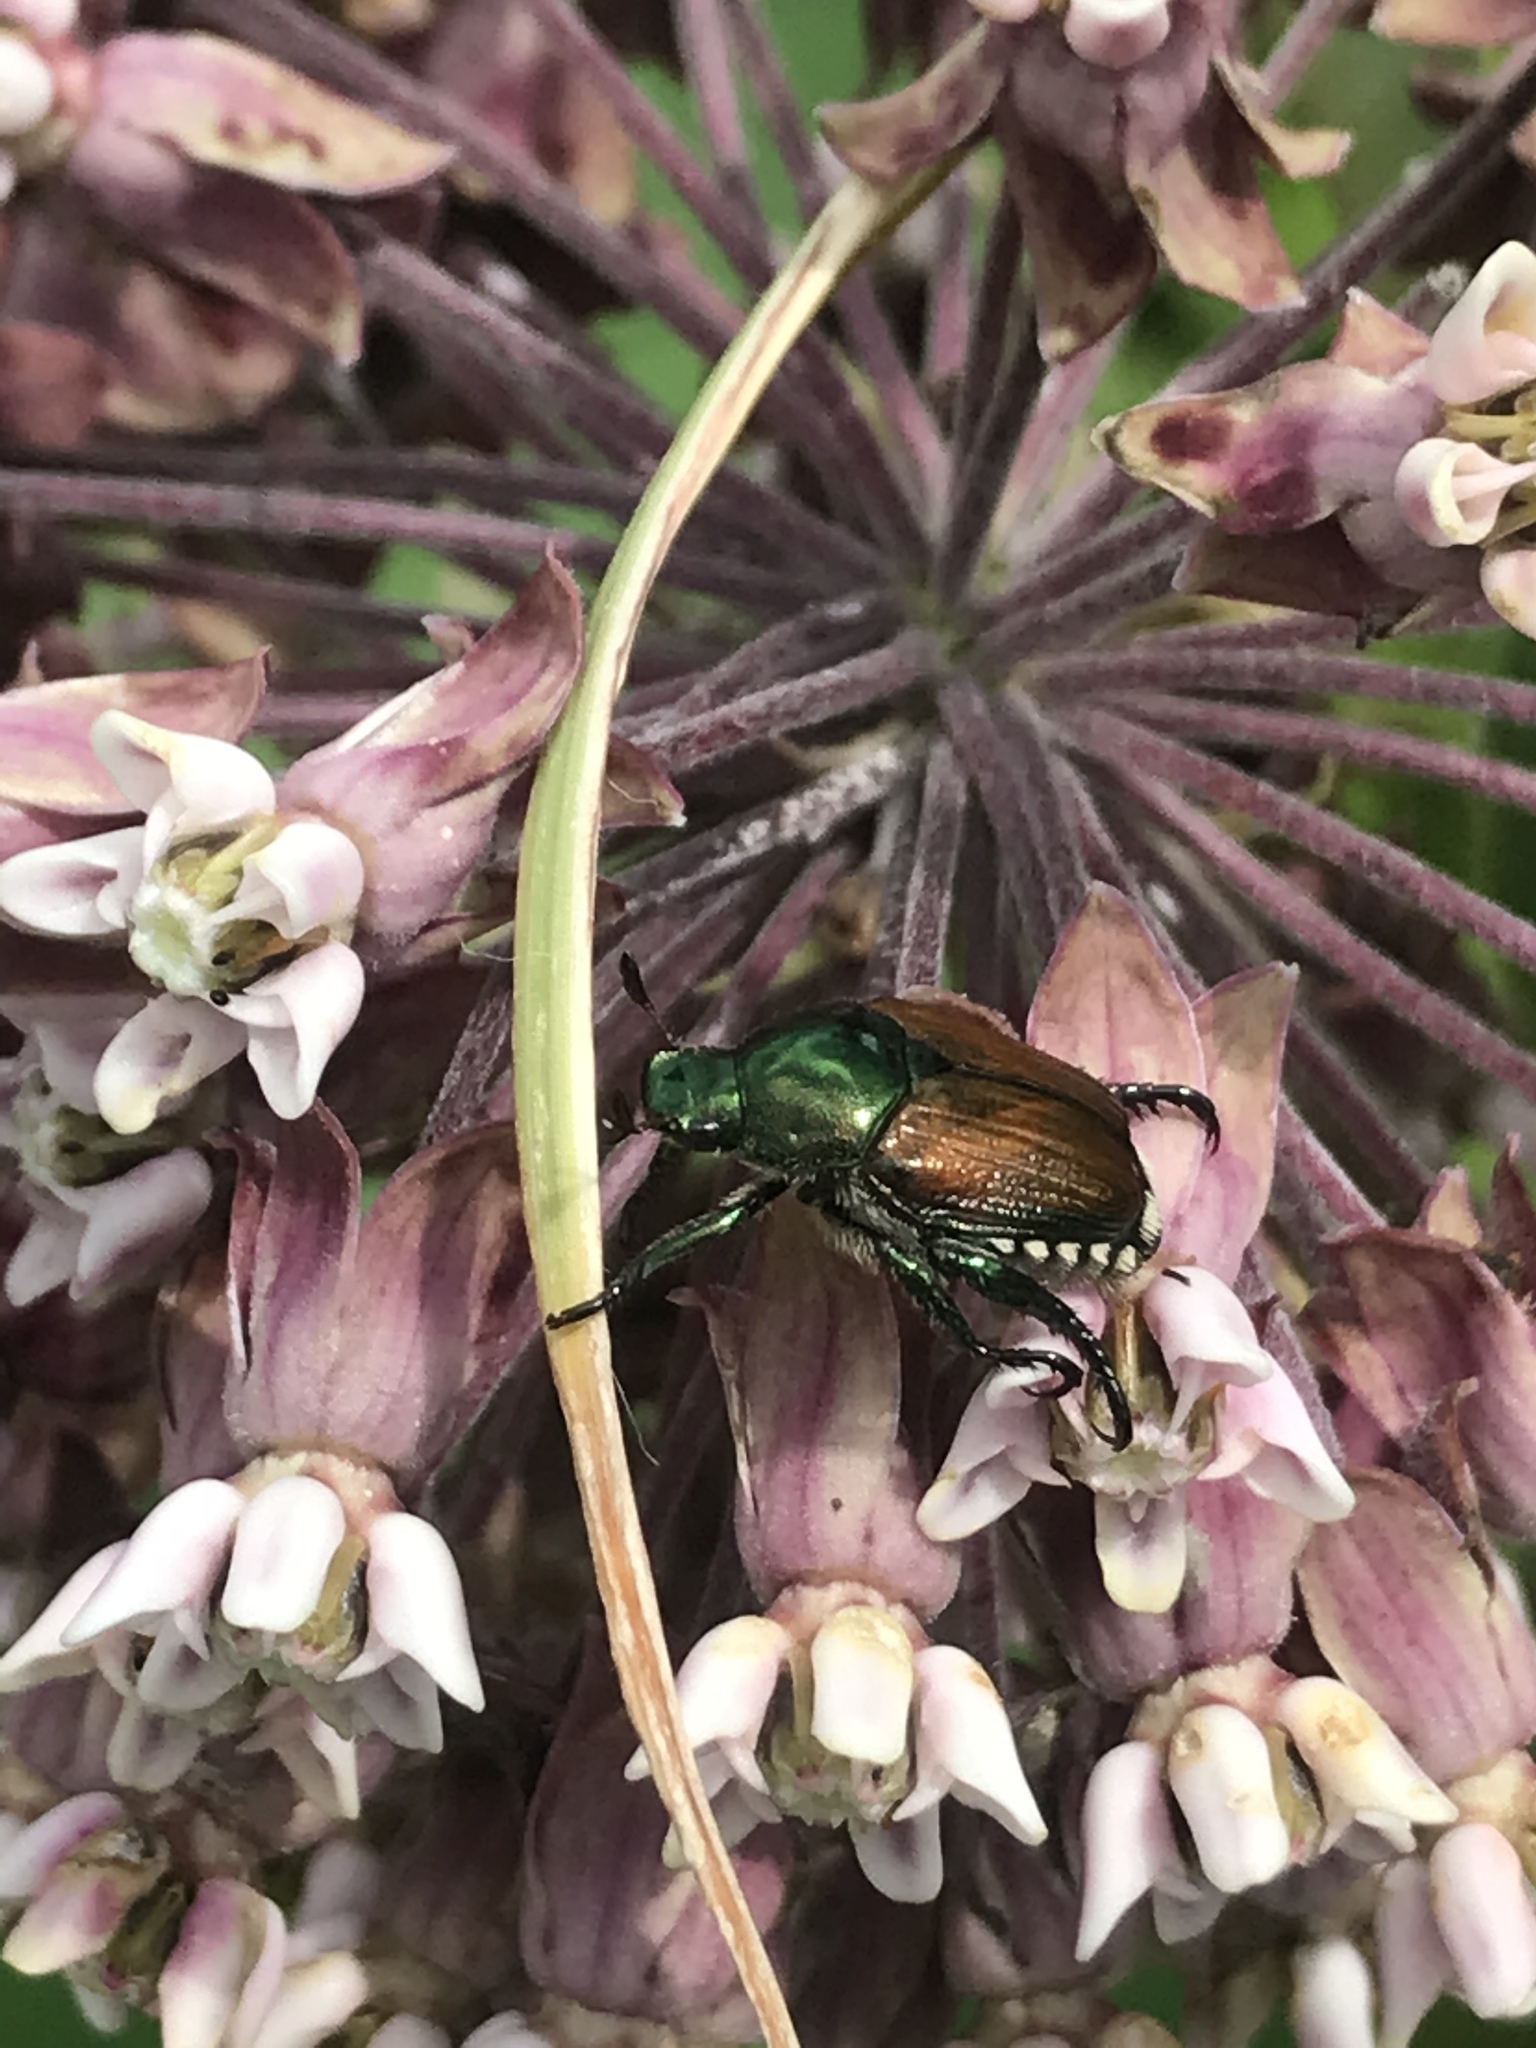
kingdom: Animalia
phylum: Arthropoda
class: Insecta
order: Coleoptera
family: Scarabaeidae
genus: Popillia
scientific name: Popillia japonica
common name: Japanese beetle
